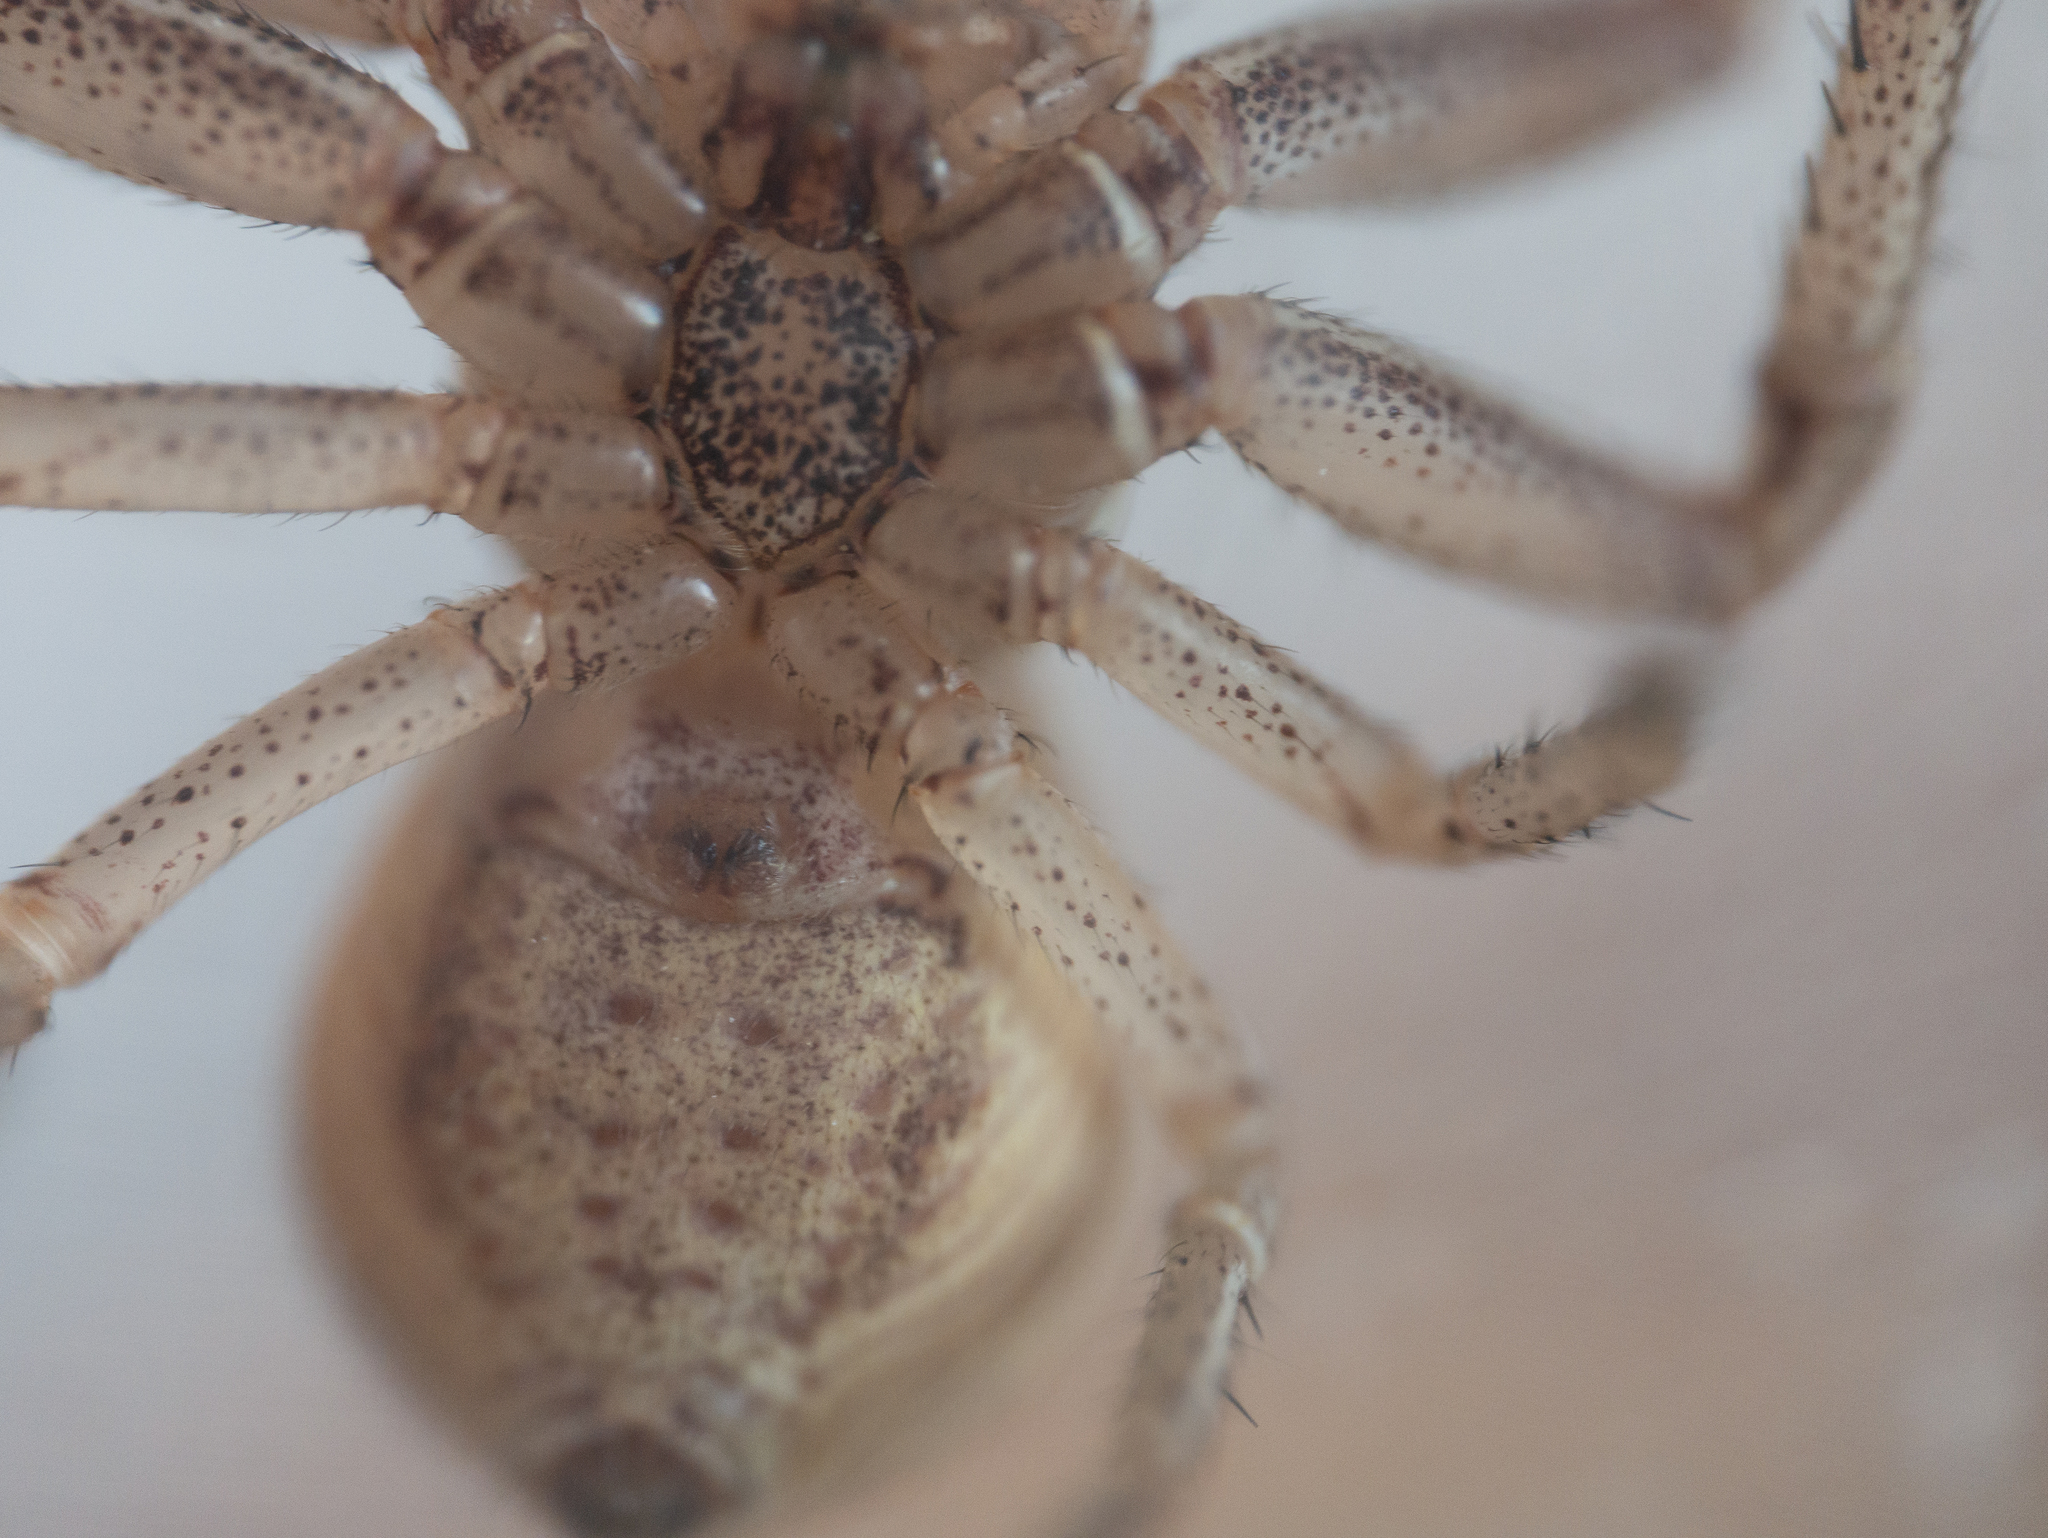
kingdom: Animalia
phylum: Arthropoda
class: Arachnida
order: Araneae
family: Thomisidae
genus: Xysticus
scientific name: Xysticus ulmi
